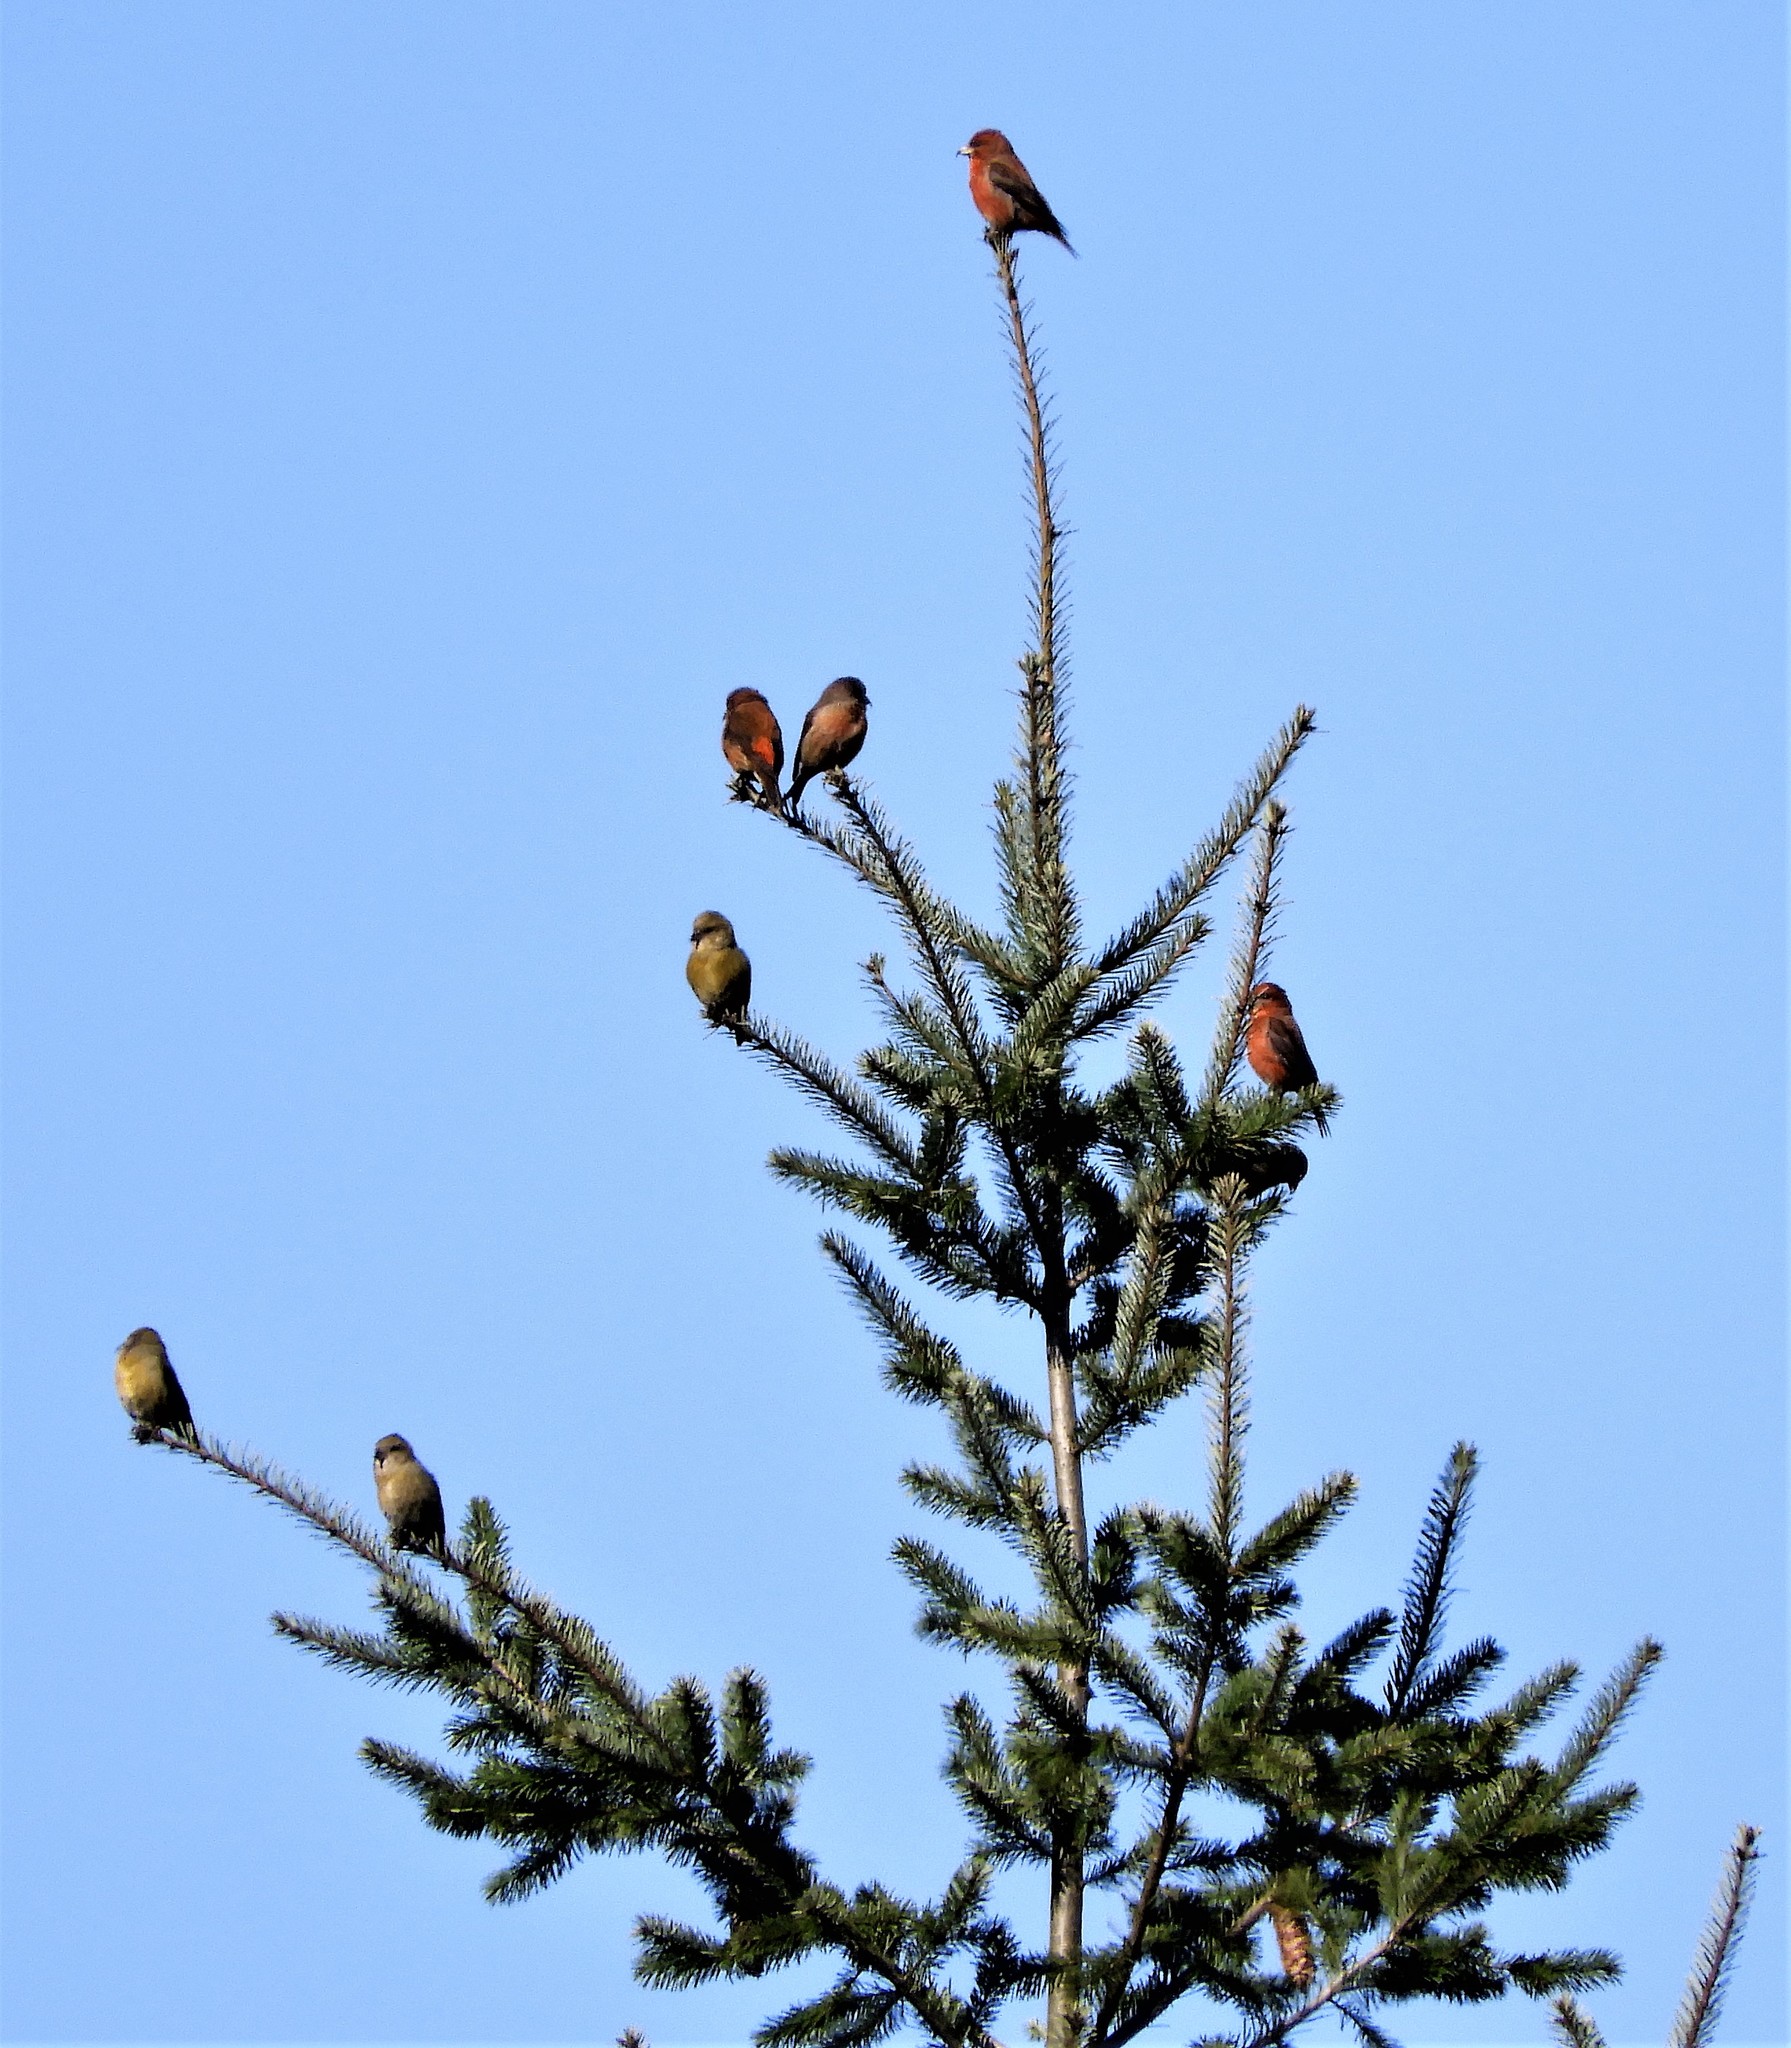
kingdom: Animalia
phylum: Chordata
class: Aves
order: Passeriformes
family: Fringillidae
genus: Loxia
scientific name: Loxia curvirostra
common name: Red crossbill
